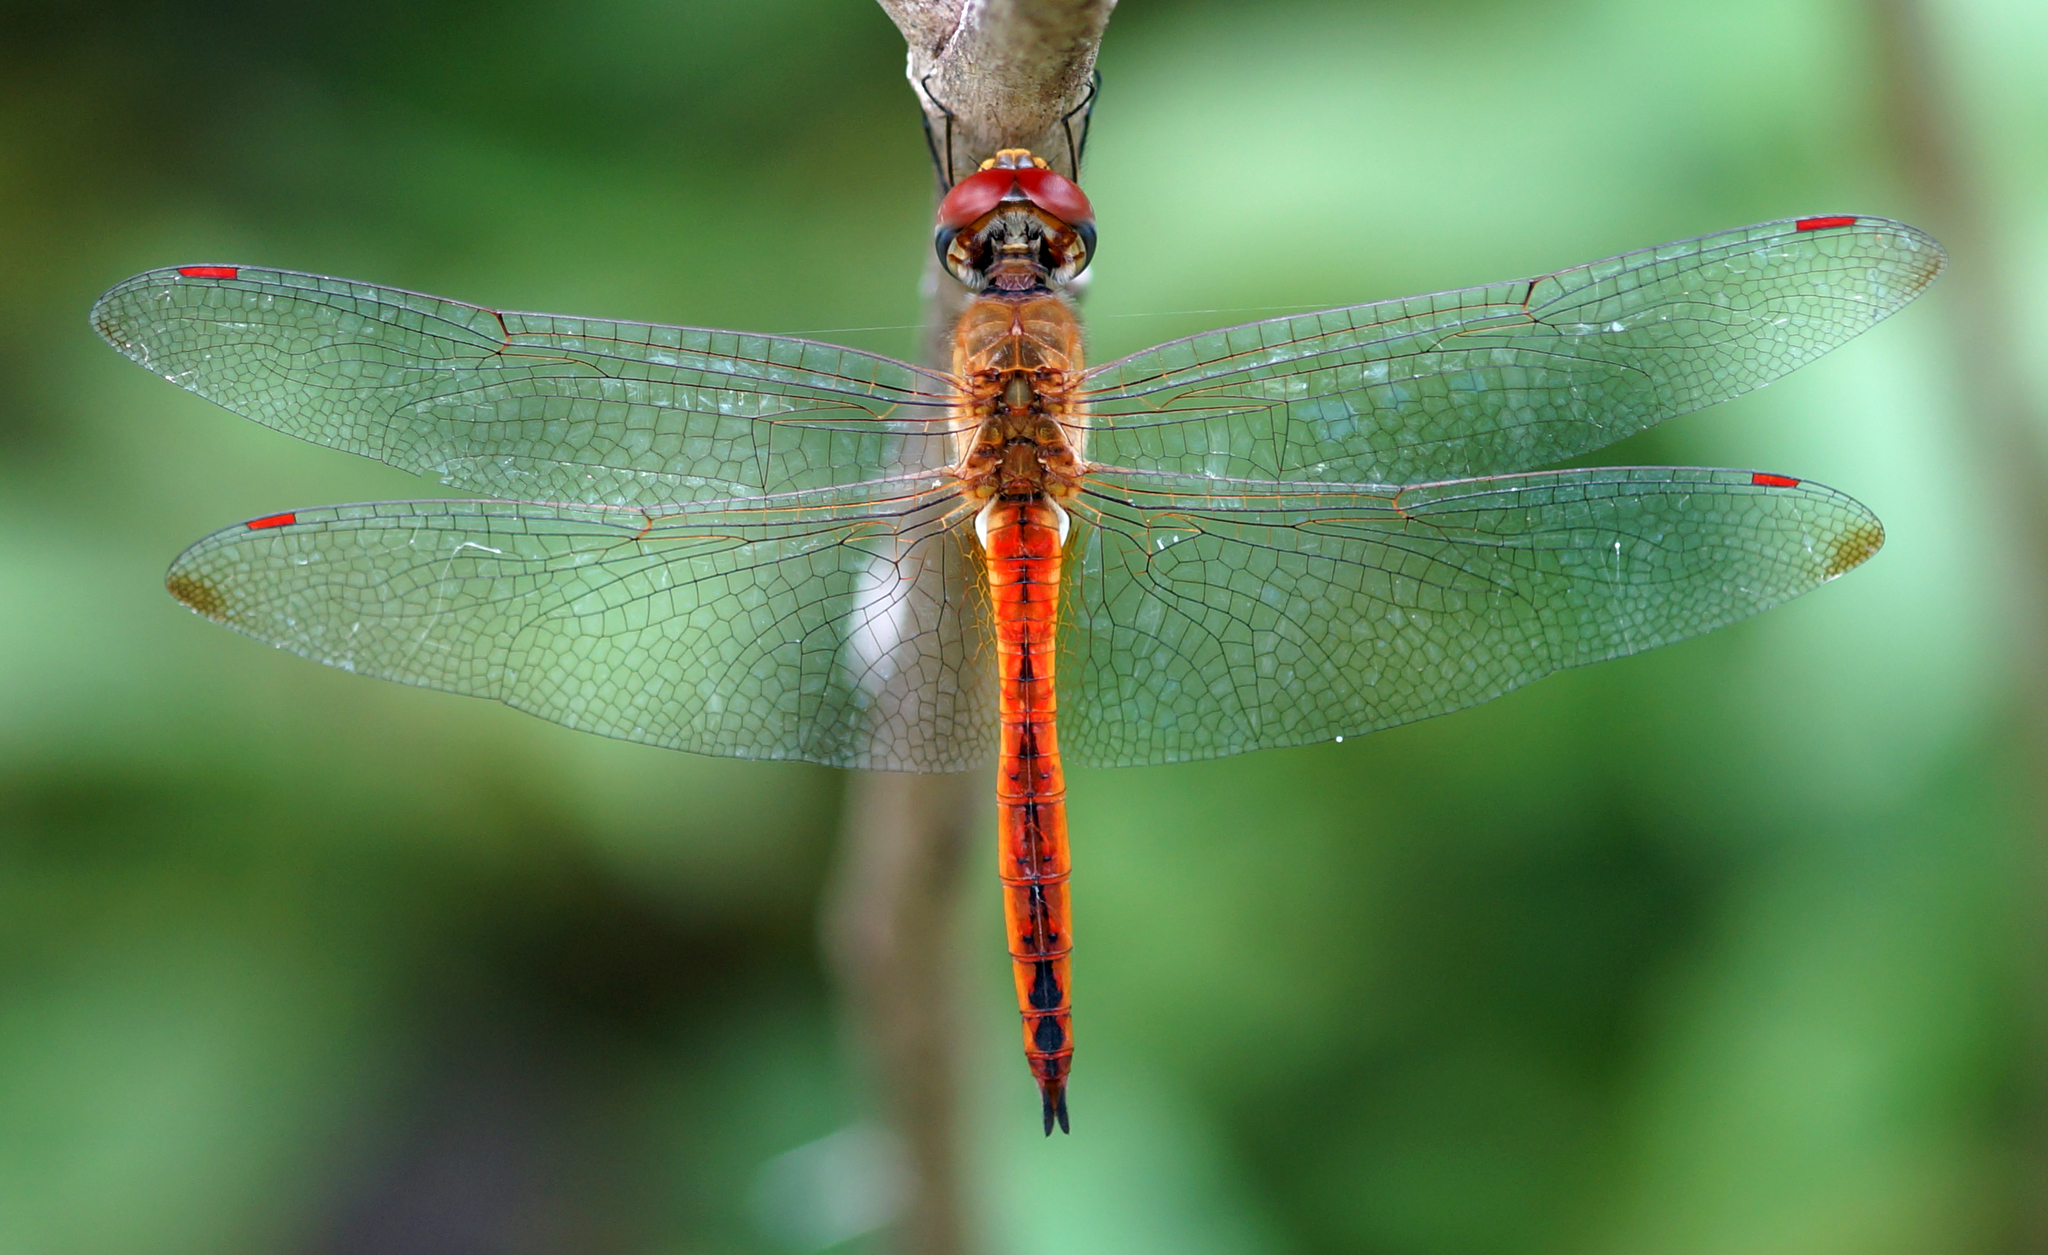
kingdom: Animalia
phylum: Arthropoda
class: Insecta
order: Odonata
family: Libellulidae
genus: Pantala
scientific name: Pantala flavescens
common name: Wandering glider
